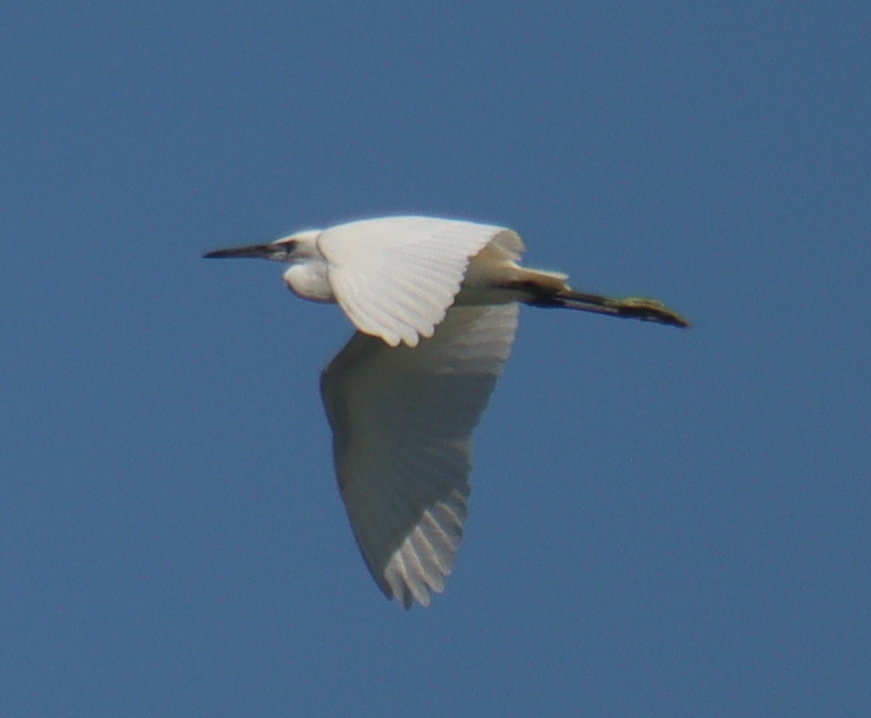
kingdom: Animalia
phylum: Chordata
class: Aves
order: Pelecaniformes
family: Ardeidae
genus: Egretta
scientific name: Egretta garzetta
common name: Little egret
